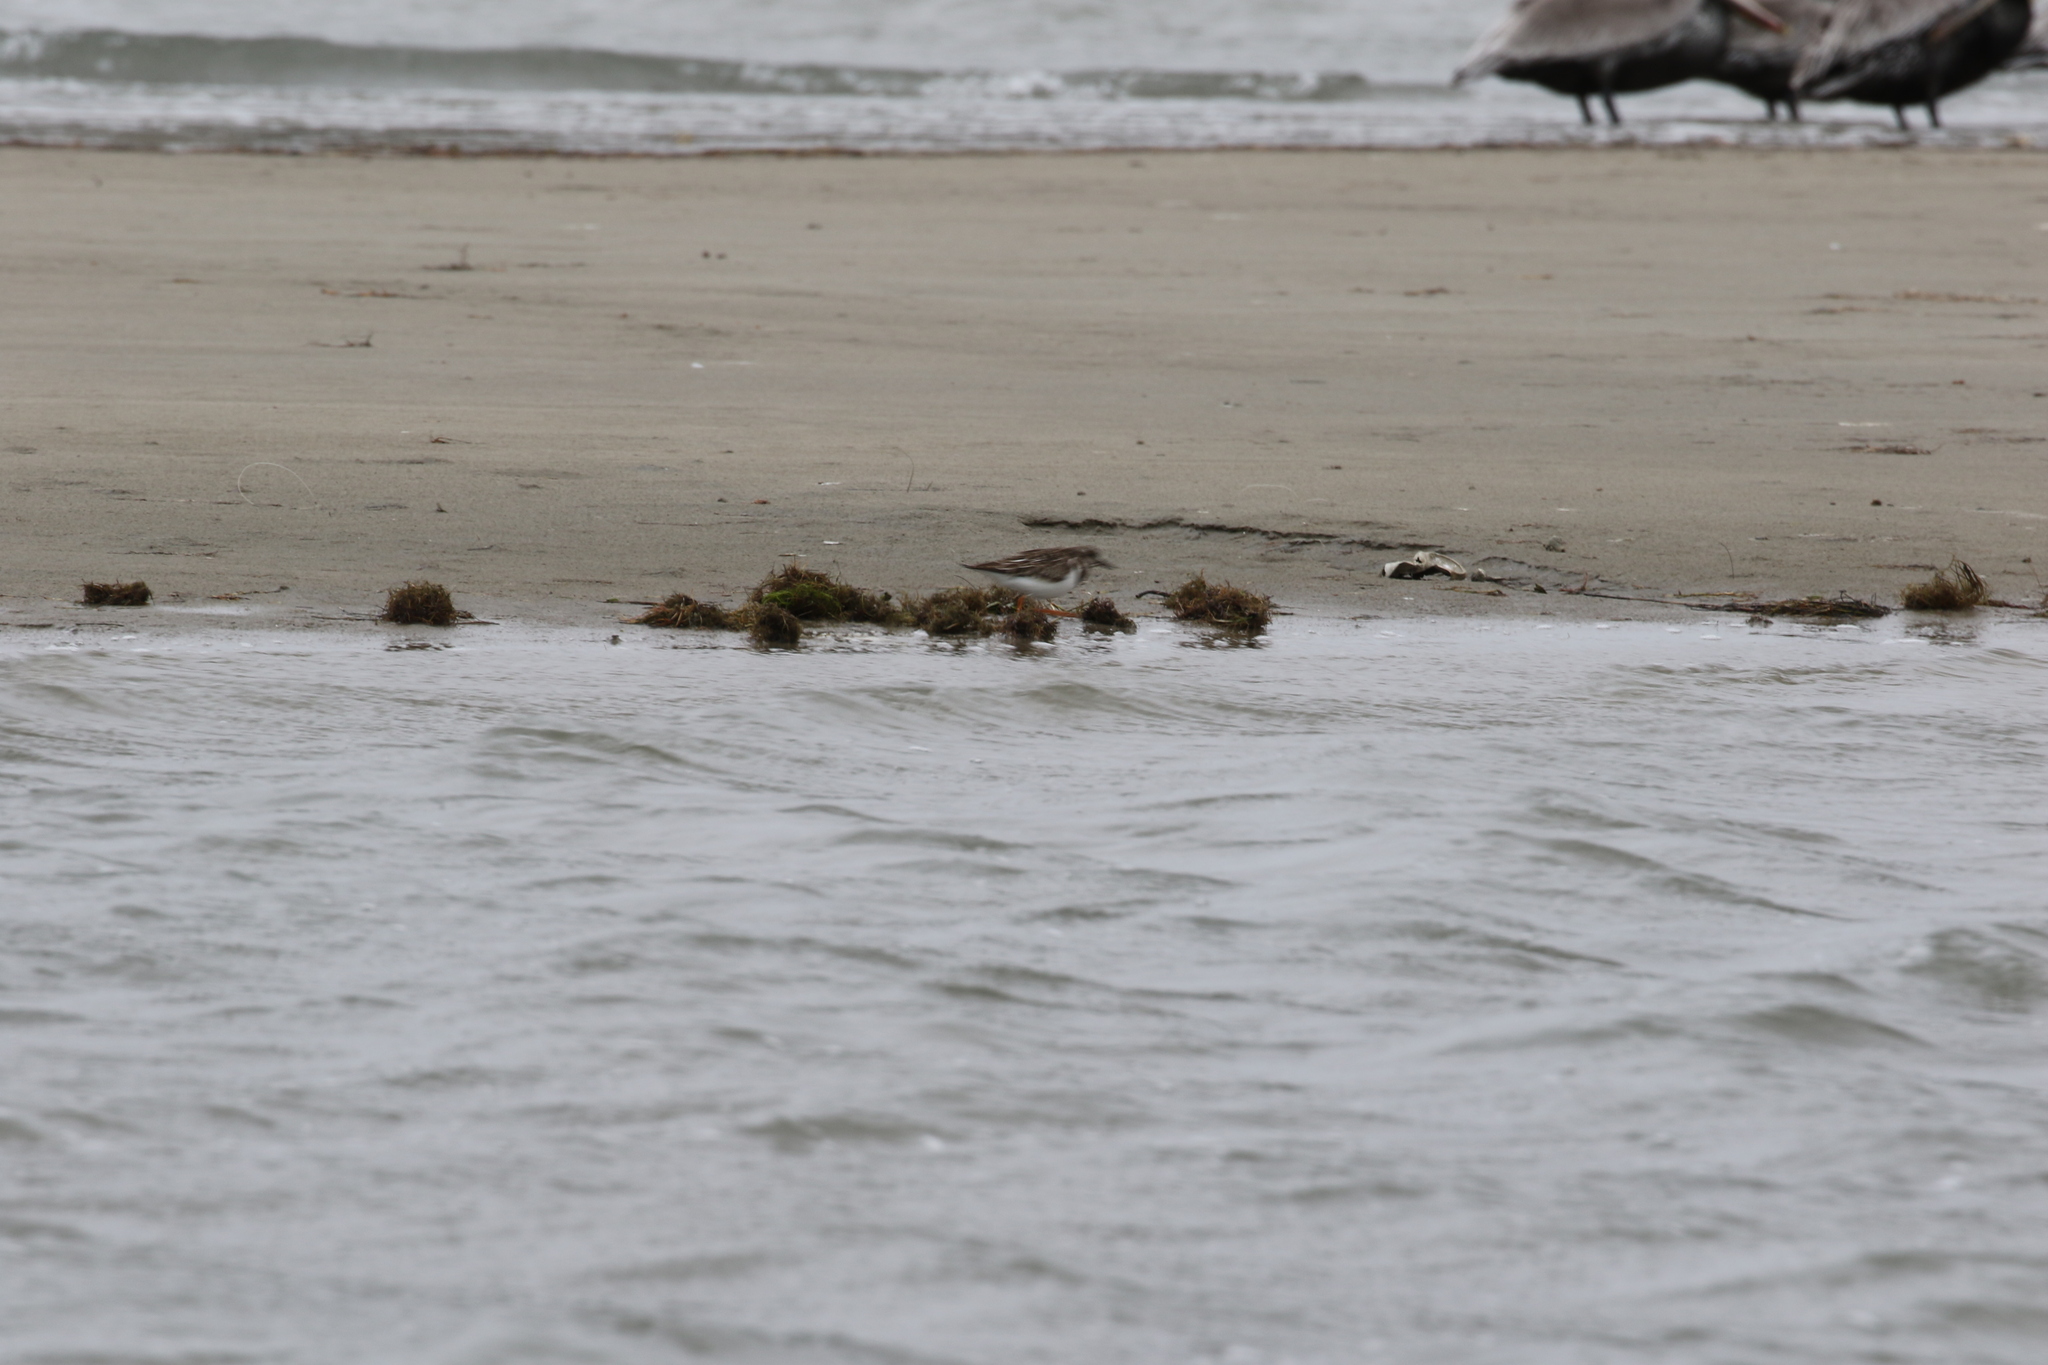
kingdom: Animalia
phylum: Chordata
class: Aves
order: Charadriiformes
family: Scolopacidae
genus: Arenaria
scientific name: Arenaria interpres
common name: Ruddy turnstone
